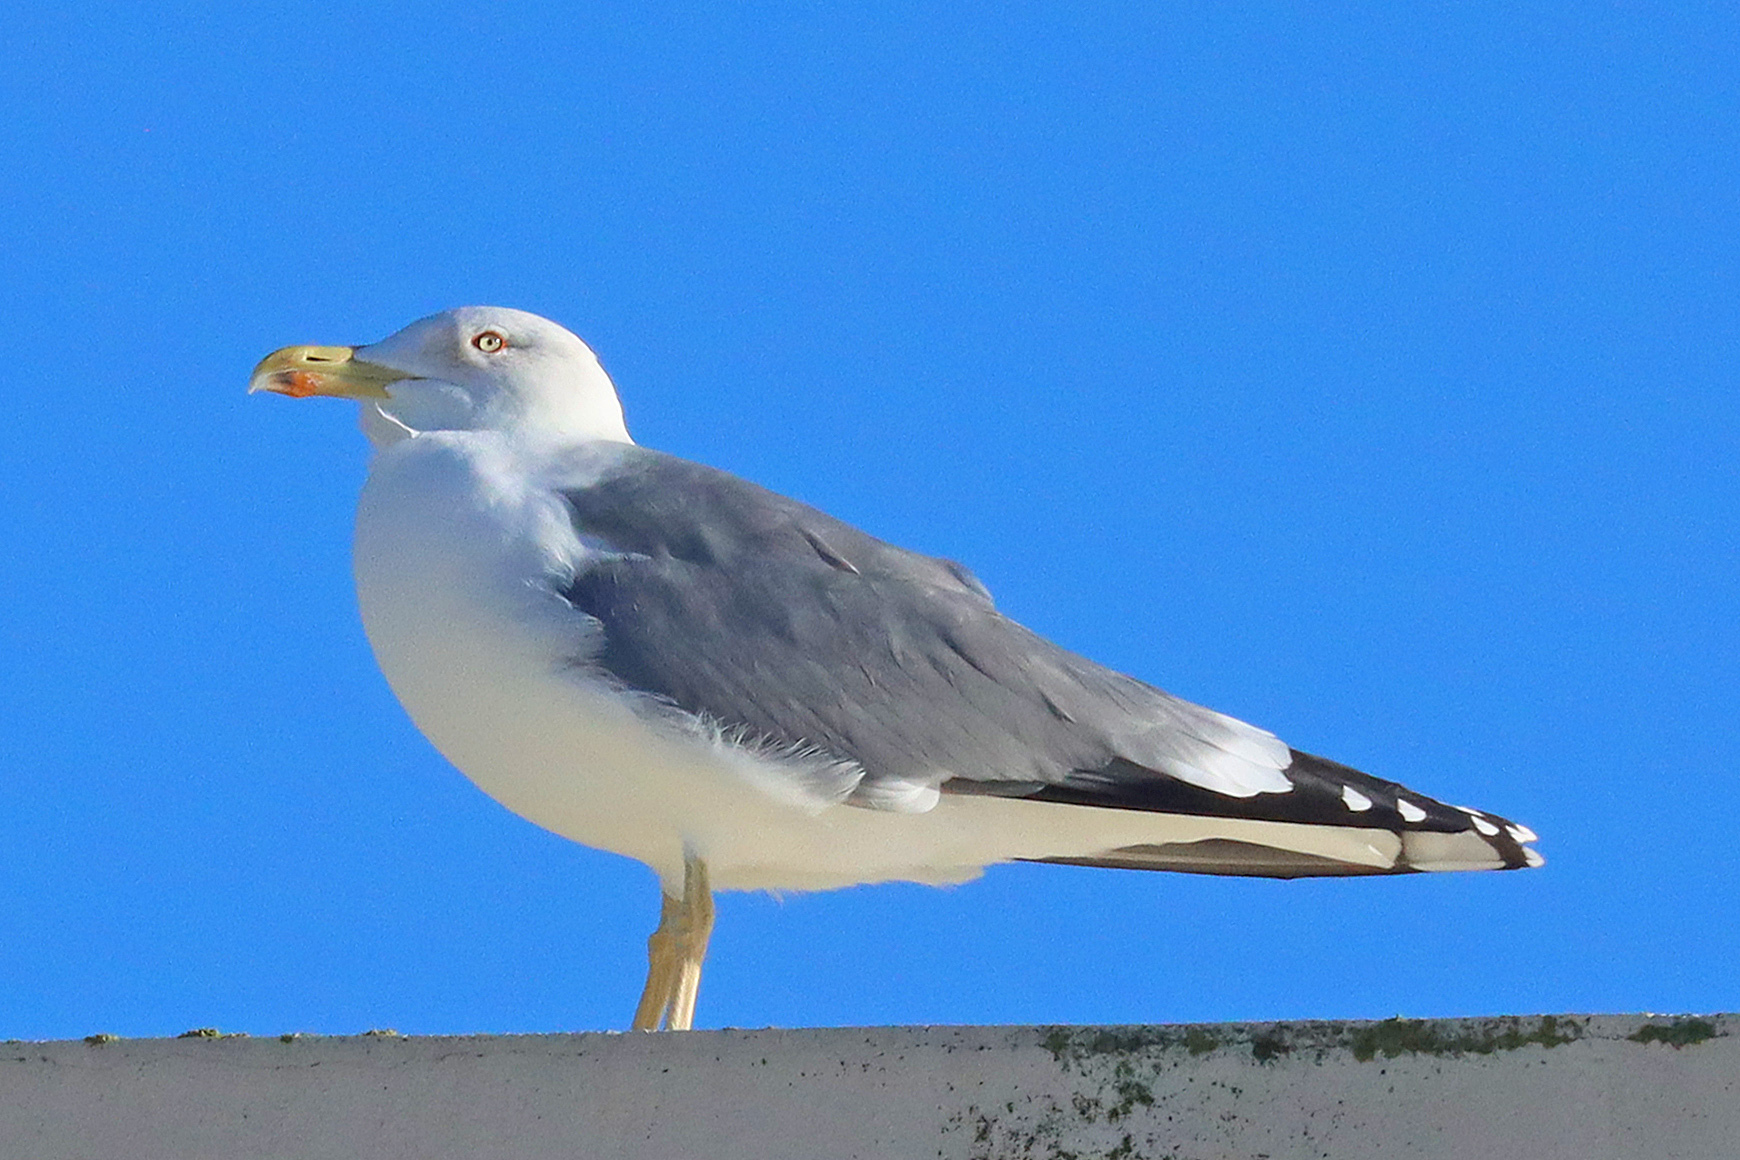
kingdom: Animalia
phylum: Chordata
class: Aves
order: Charadriiformes
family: Laridae
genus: Larus
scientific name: Larus michahellis
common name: Yellow-legged gull
